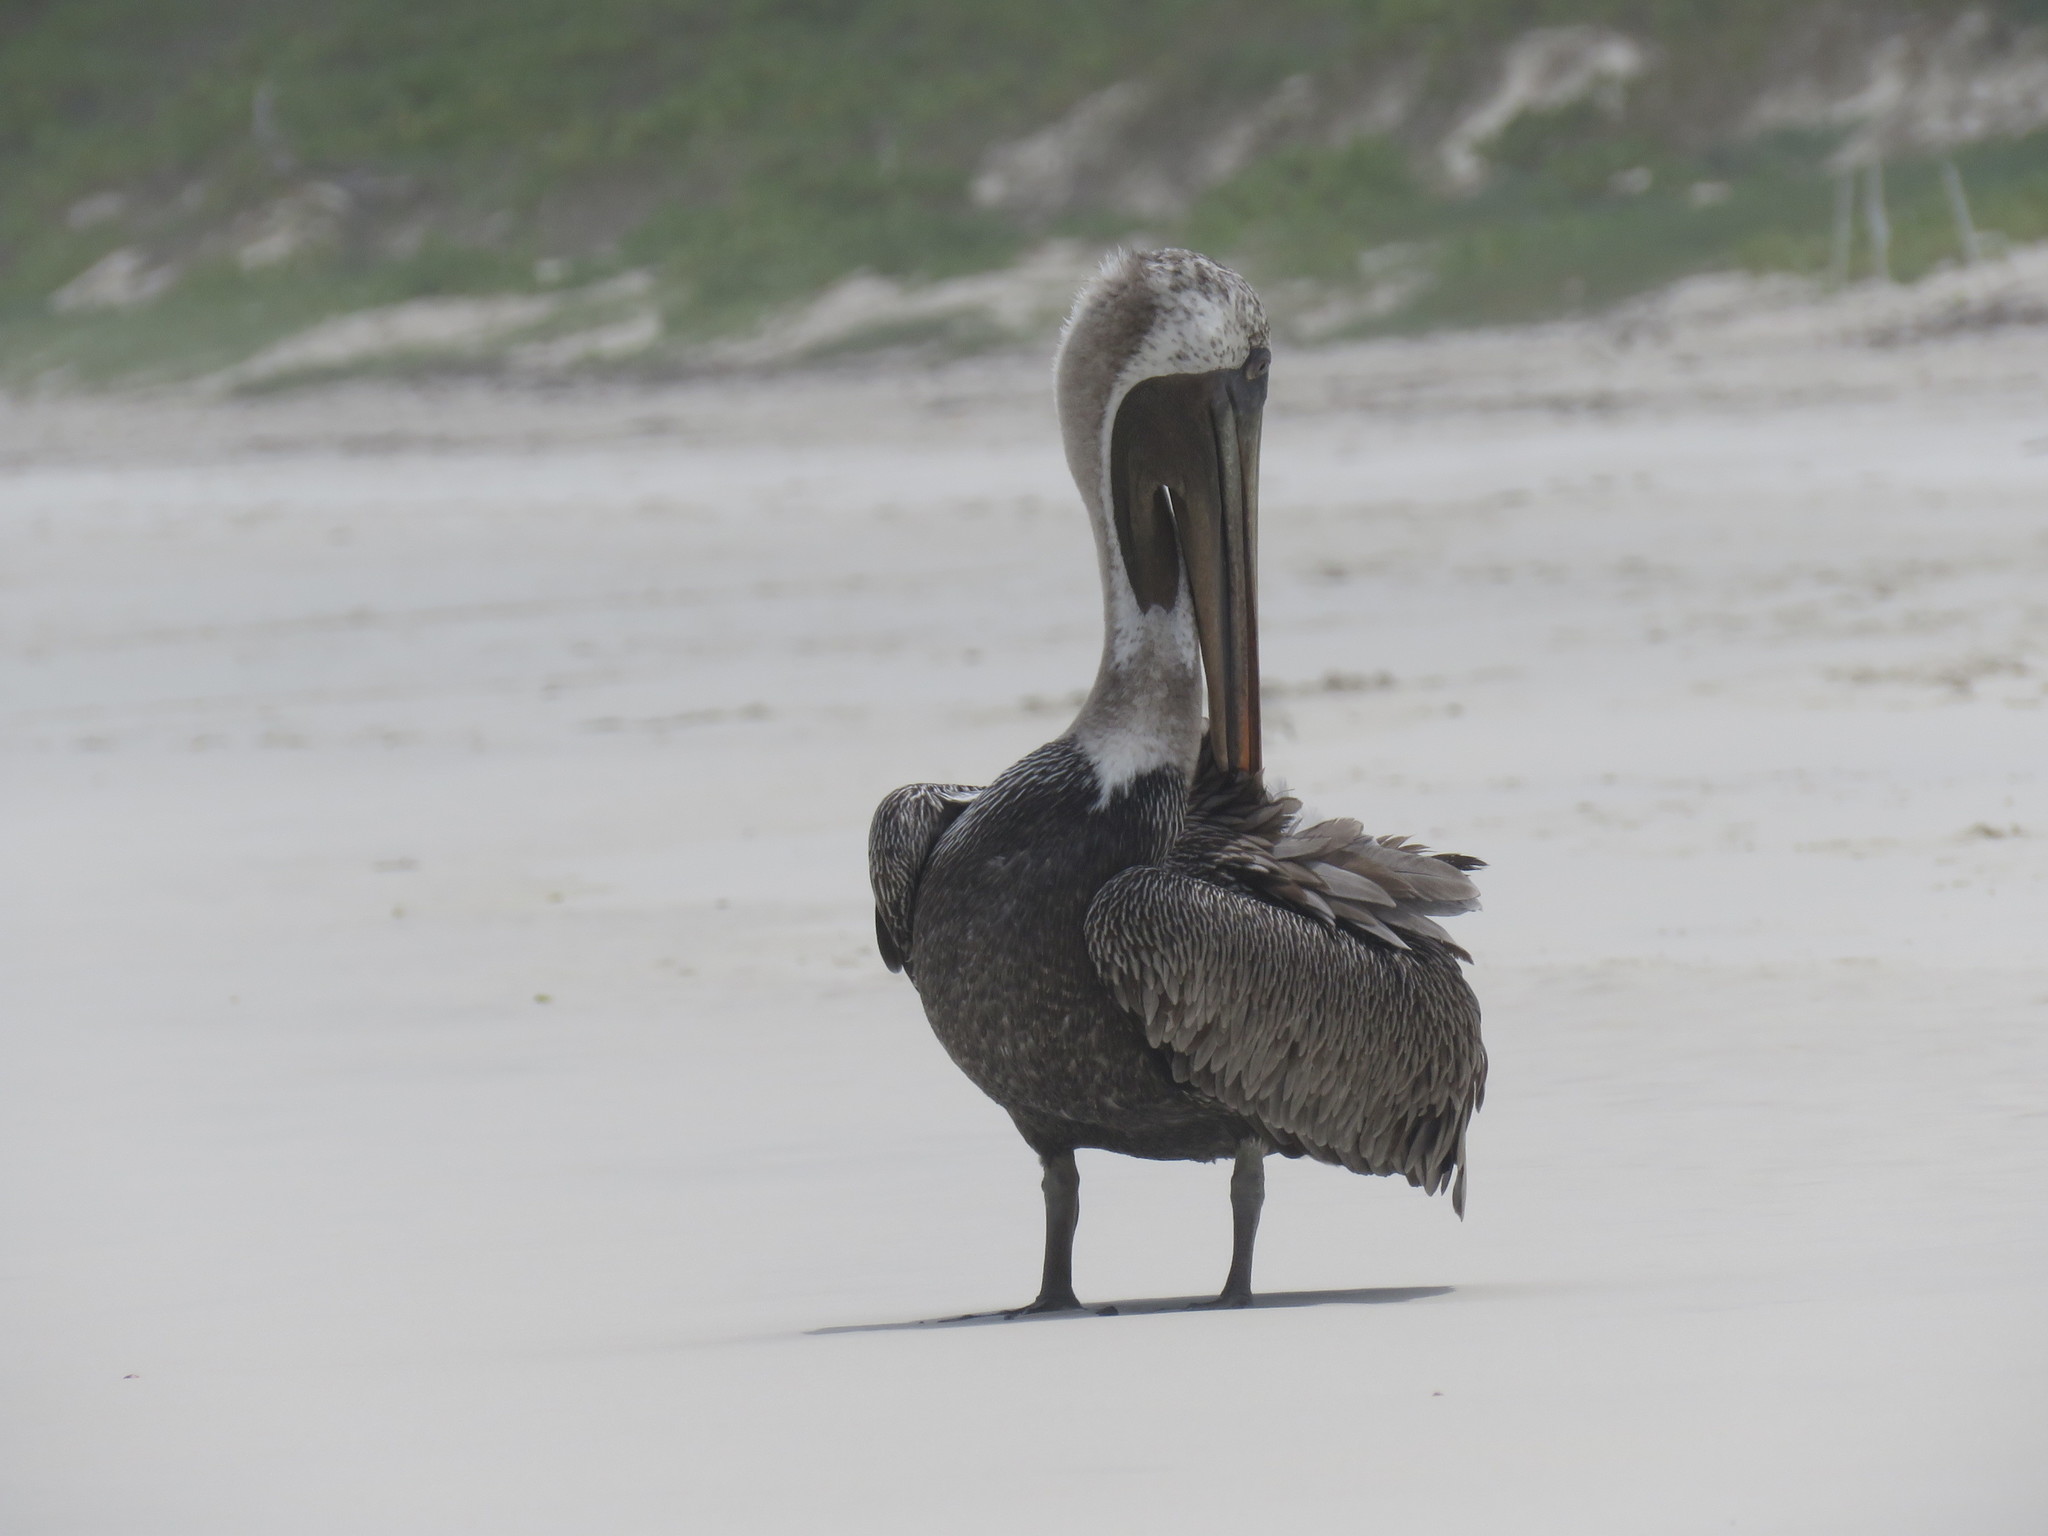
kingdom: Animalia
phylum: Chordata
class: Aves
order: Pelecaniformes
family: Pelecanidae
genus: Pelecanus
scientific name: Pelecanus occidentalis
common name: Brown pelican
